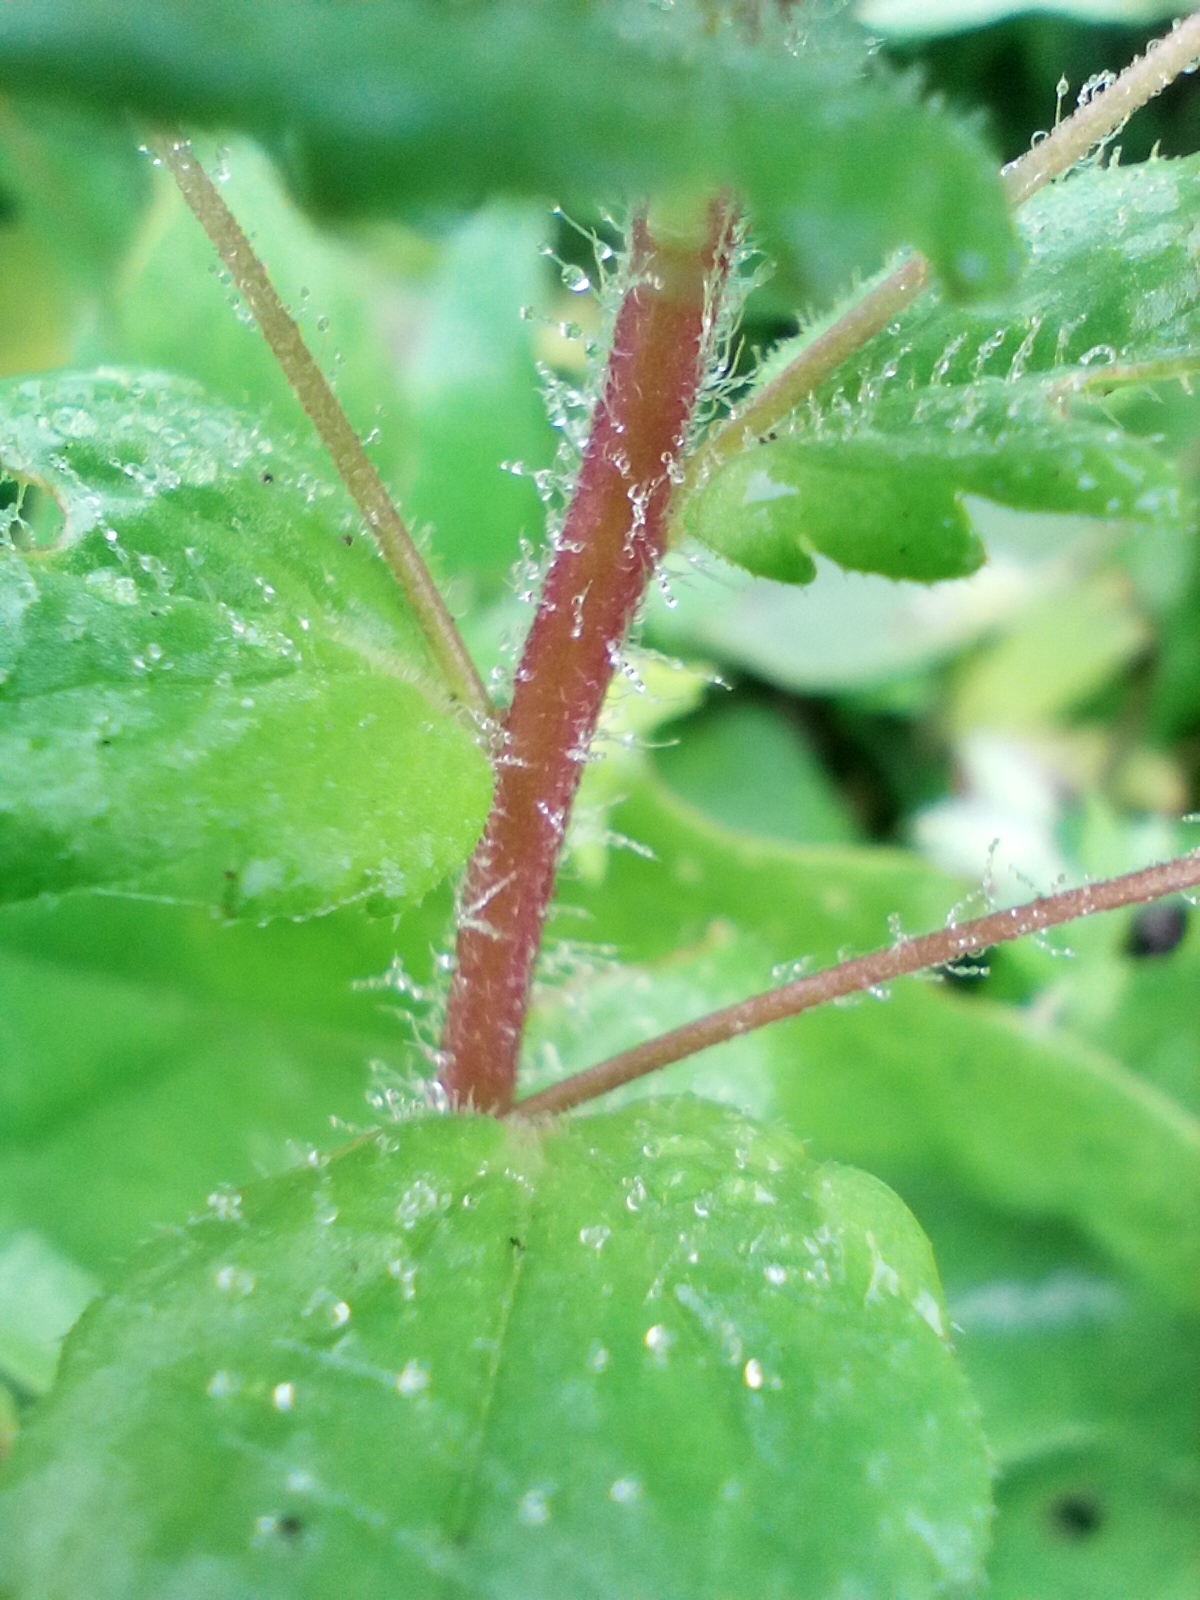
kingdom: Plantae
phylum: Tracheophyta
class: Magnoliopsida
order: Lamiales
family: Plantaginaceae
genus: Veronica
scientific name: Veronica persica
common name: Common field-speedwell
